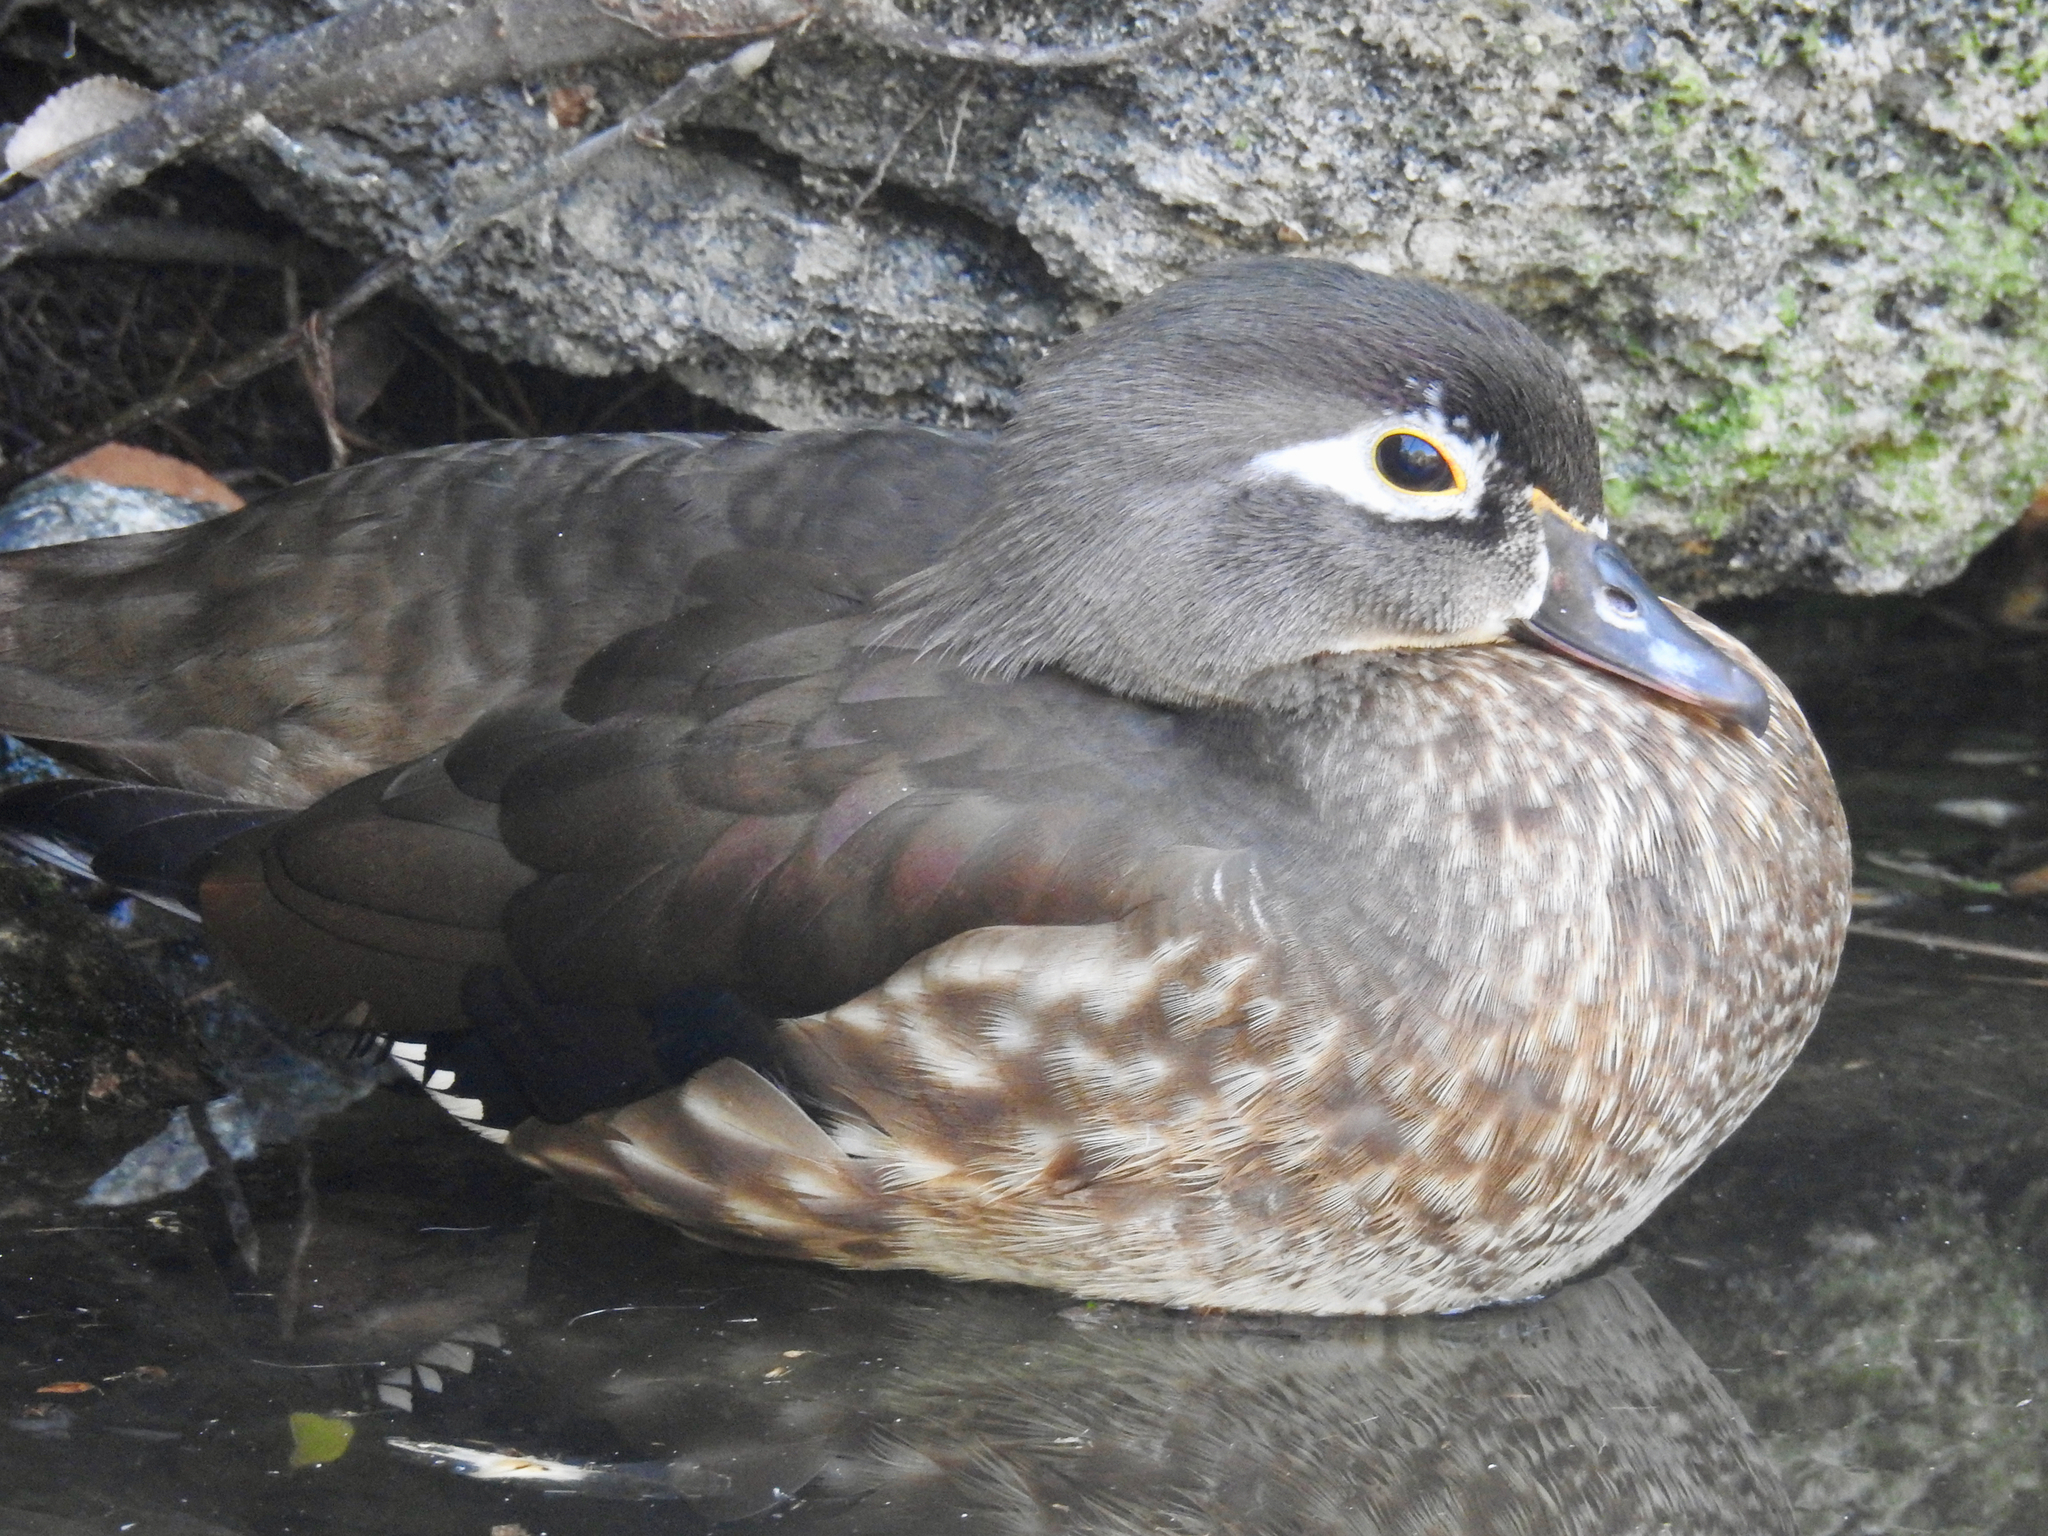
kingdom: Animalia
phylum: Chordata
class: Aves
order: Anseriformes
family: Anatidae
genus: Aix
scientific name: Aix sponsa
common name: Wood duck
